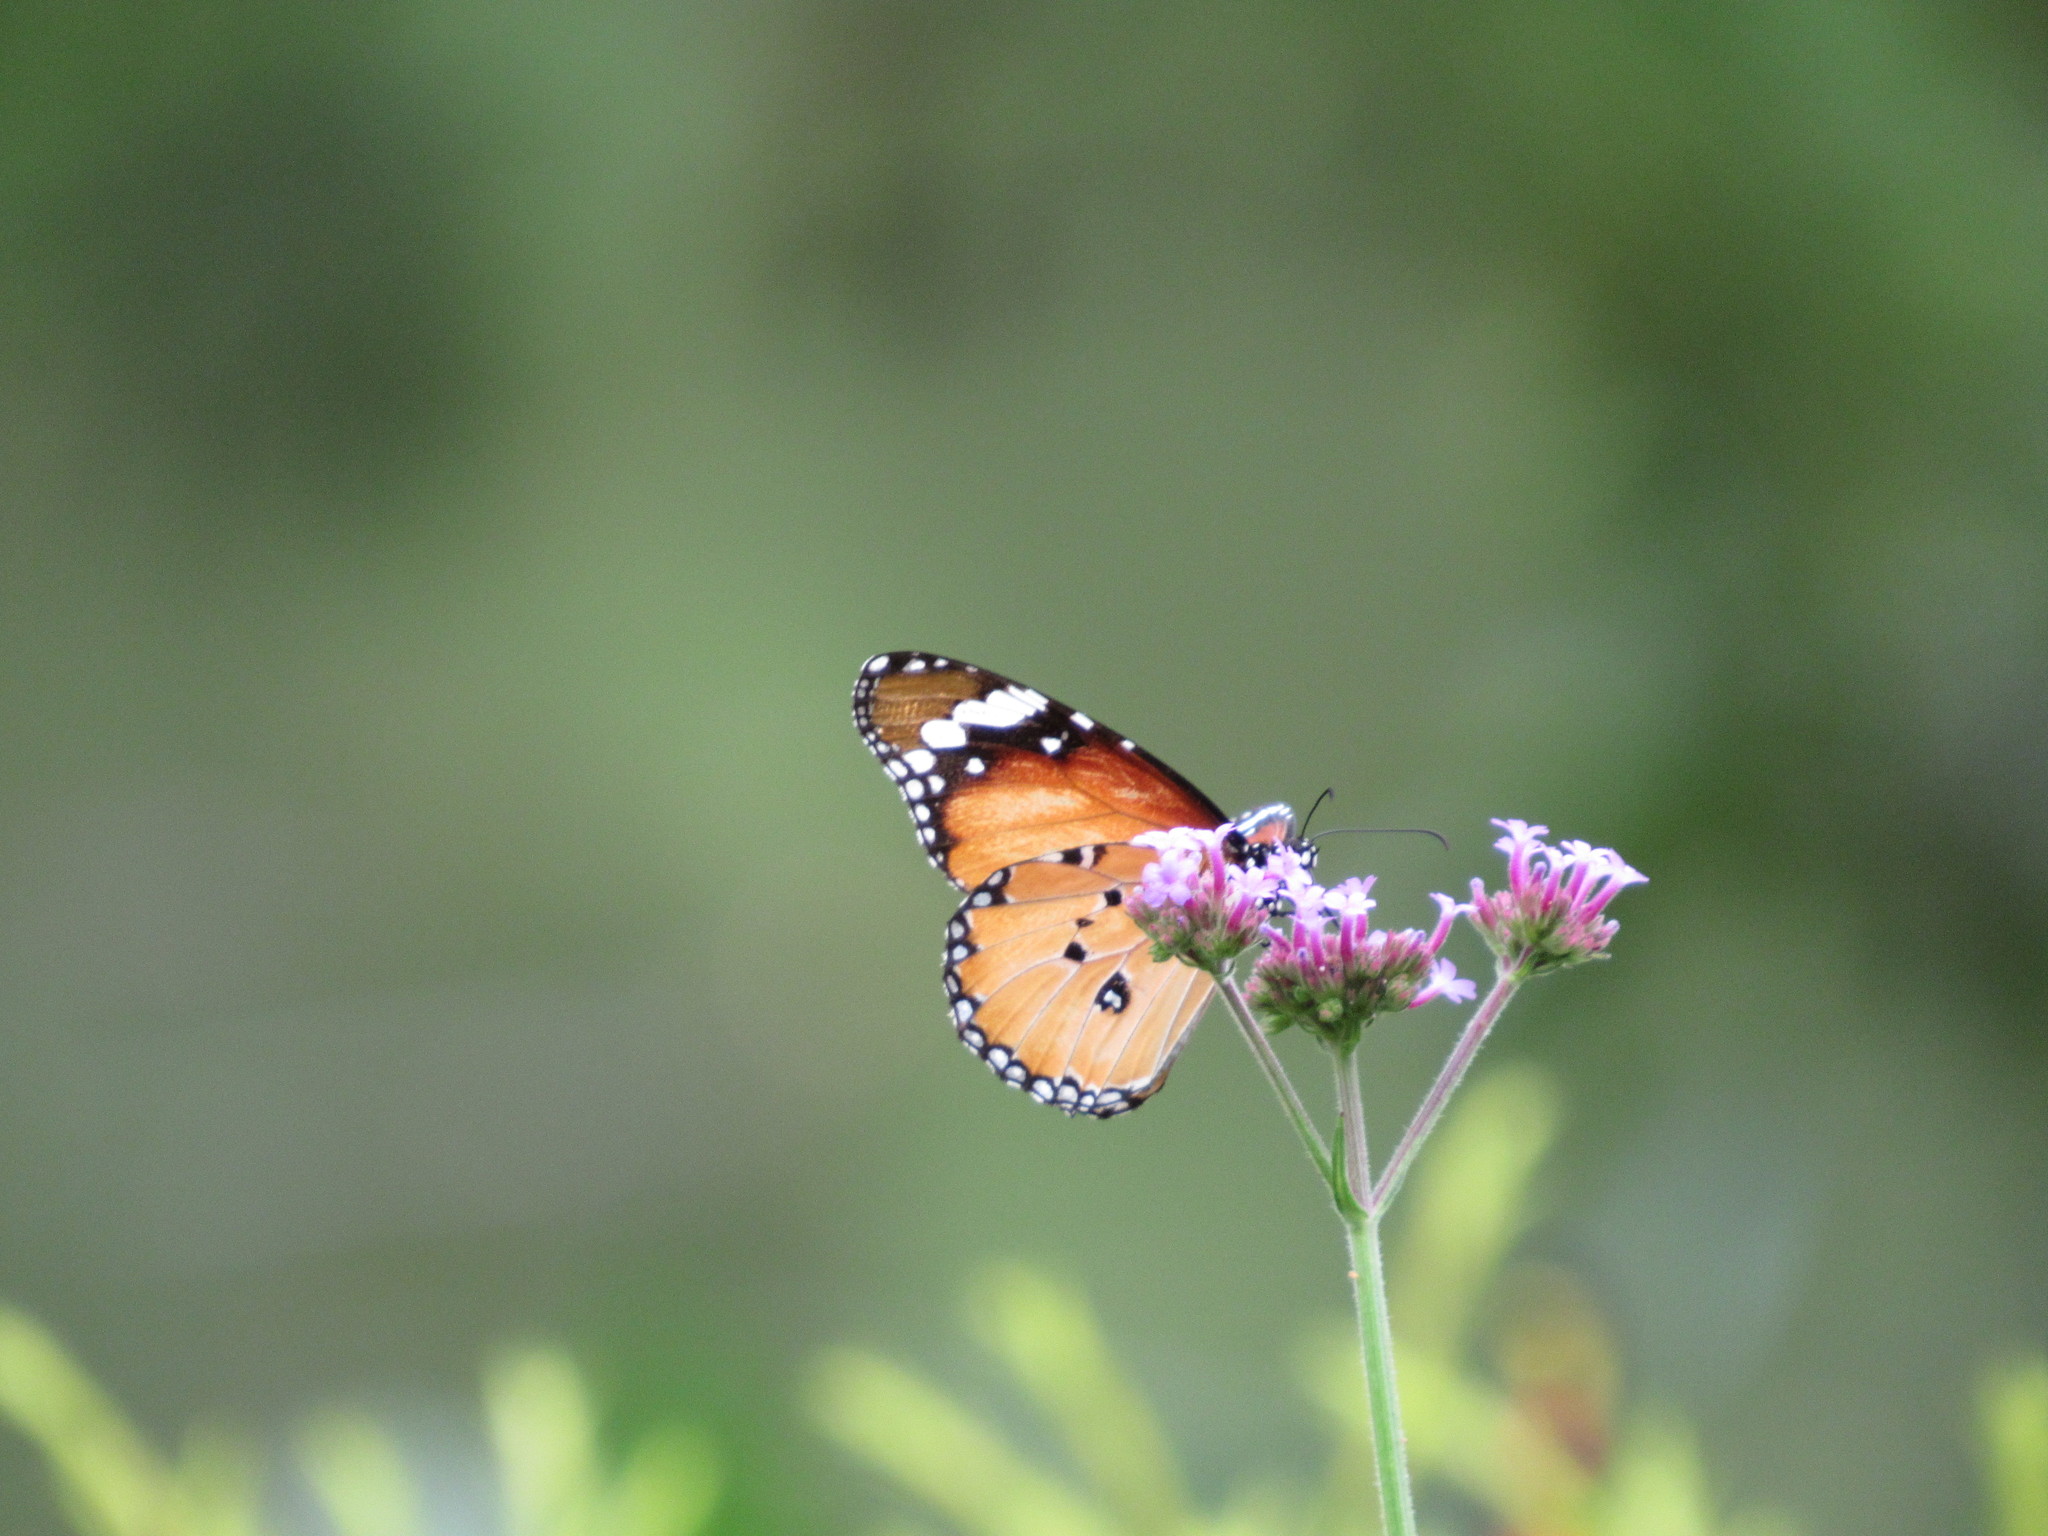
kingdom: Animalia
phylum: Arthropoda
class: Insecta
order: Lepidoptera
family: Nymphalidae
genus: Danaus
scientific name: Danaus chrysippus
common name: Plain tiger
